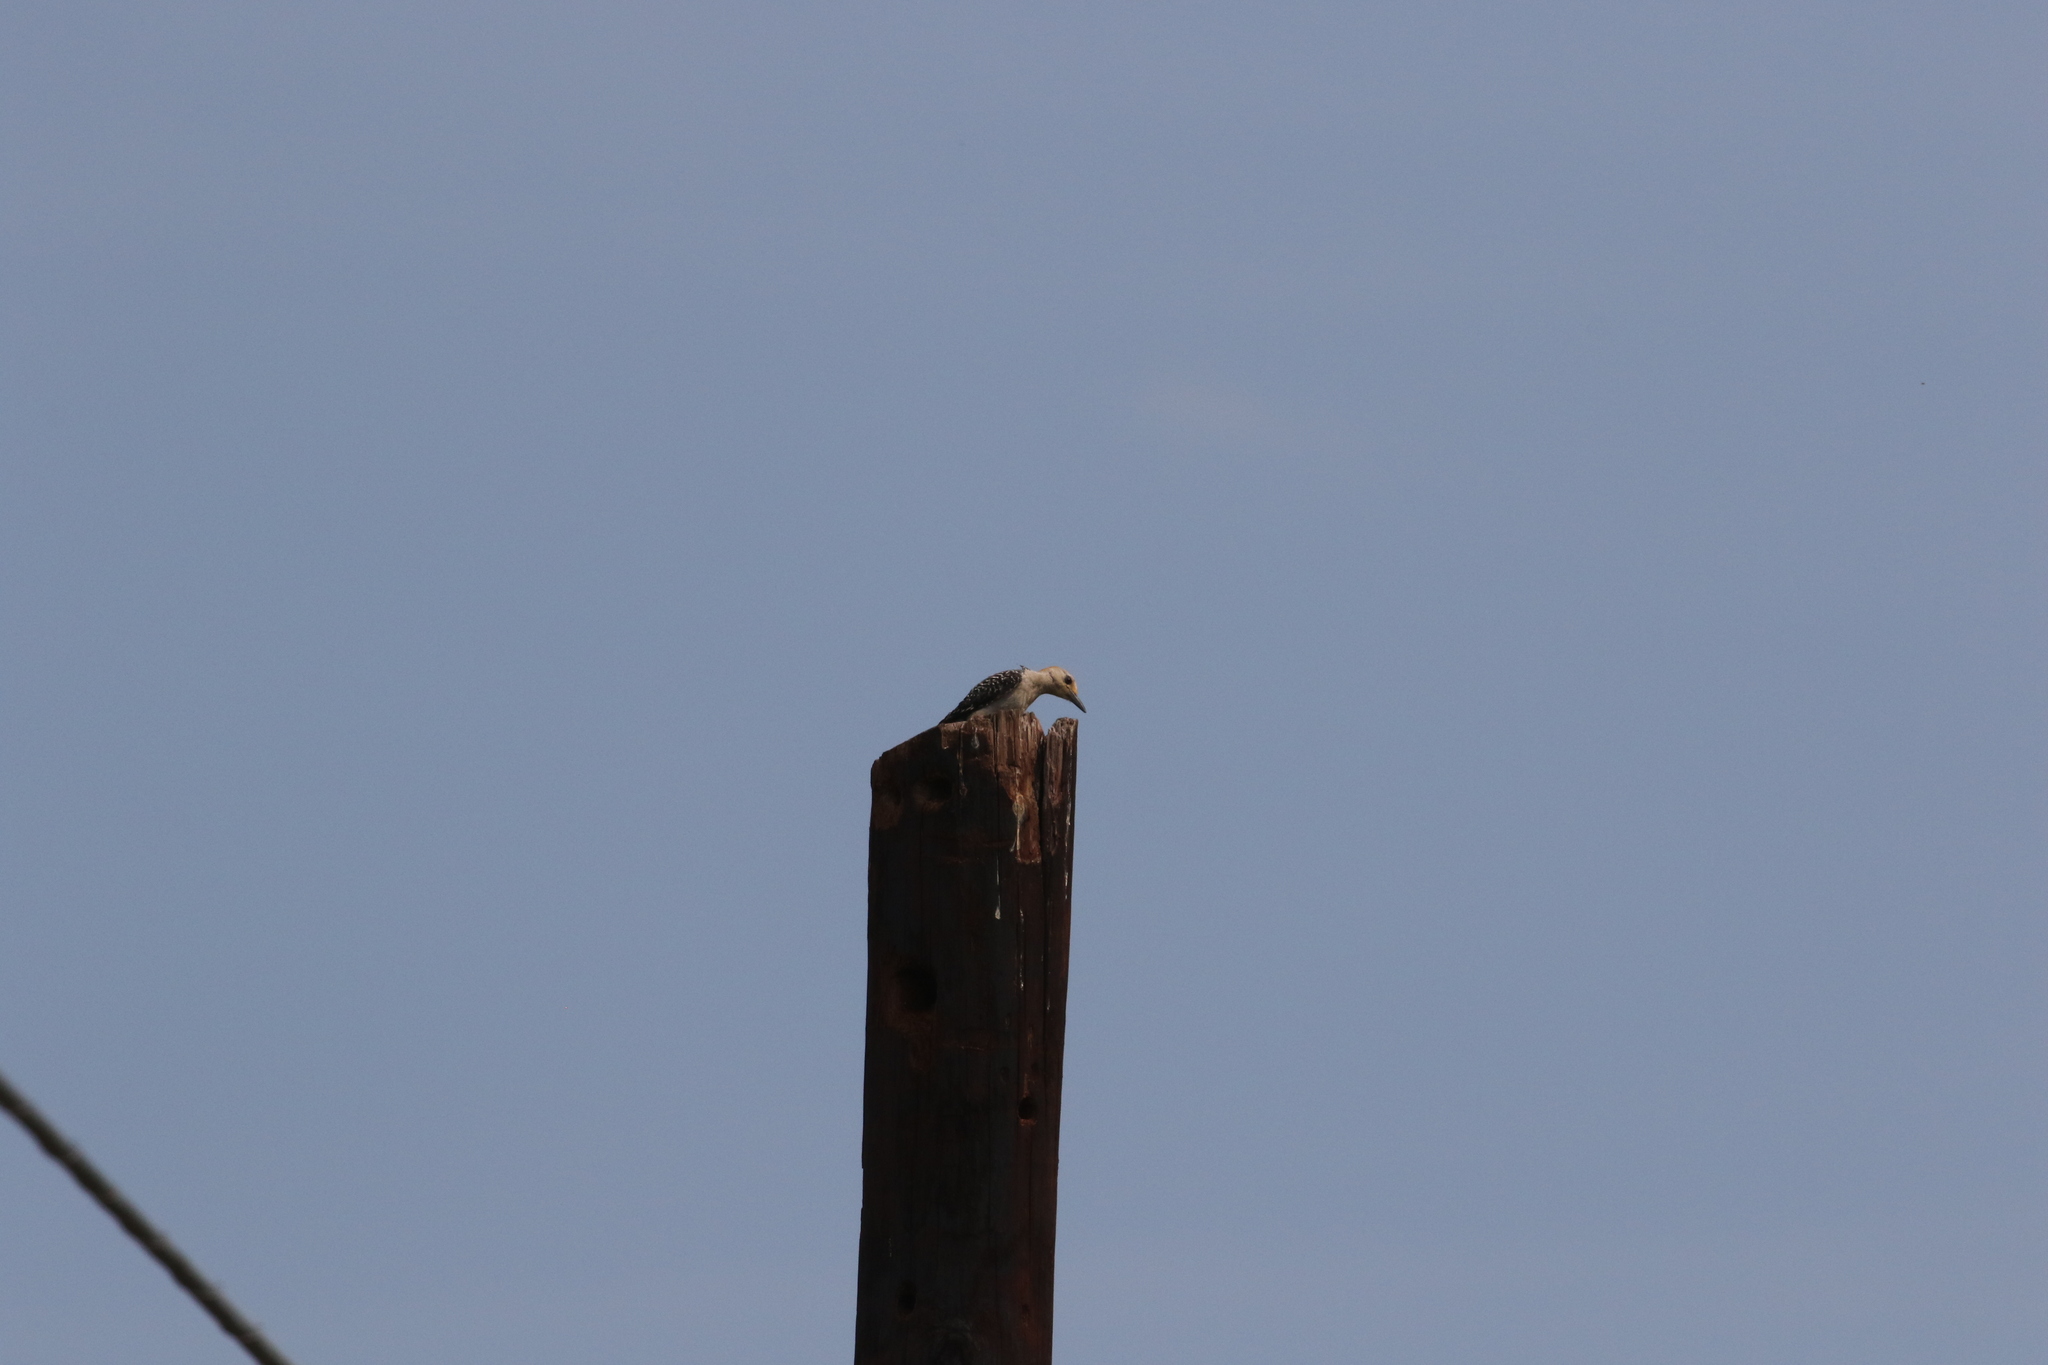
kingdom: Animalia
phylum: Chordata
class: Aves
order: Piciformes
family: Picidae
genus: Melanerpes
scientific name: Melanerpes aurifrons
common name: Golden-fronted woodpecker
